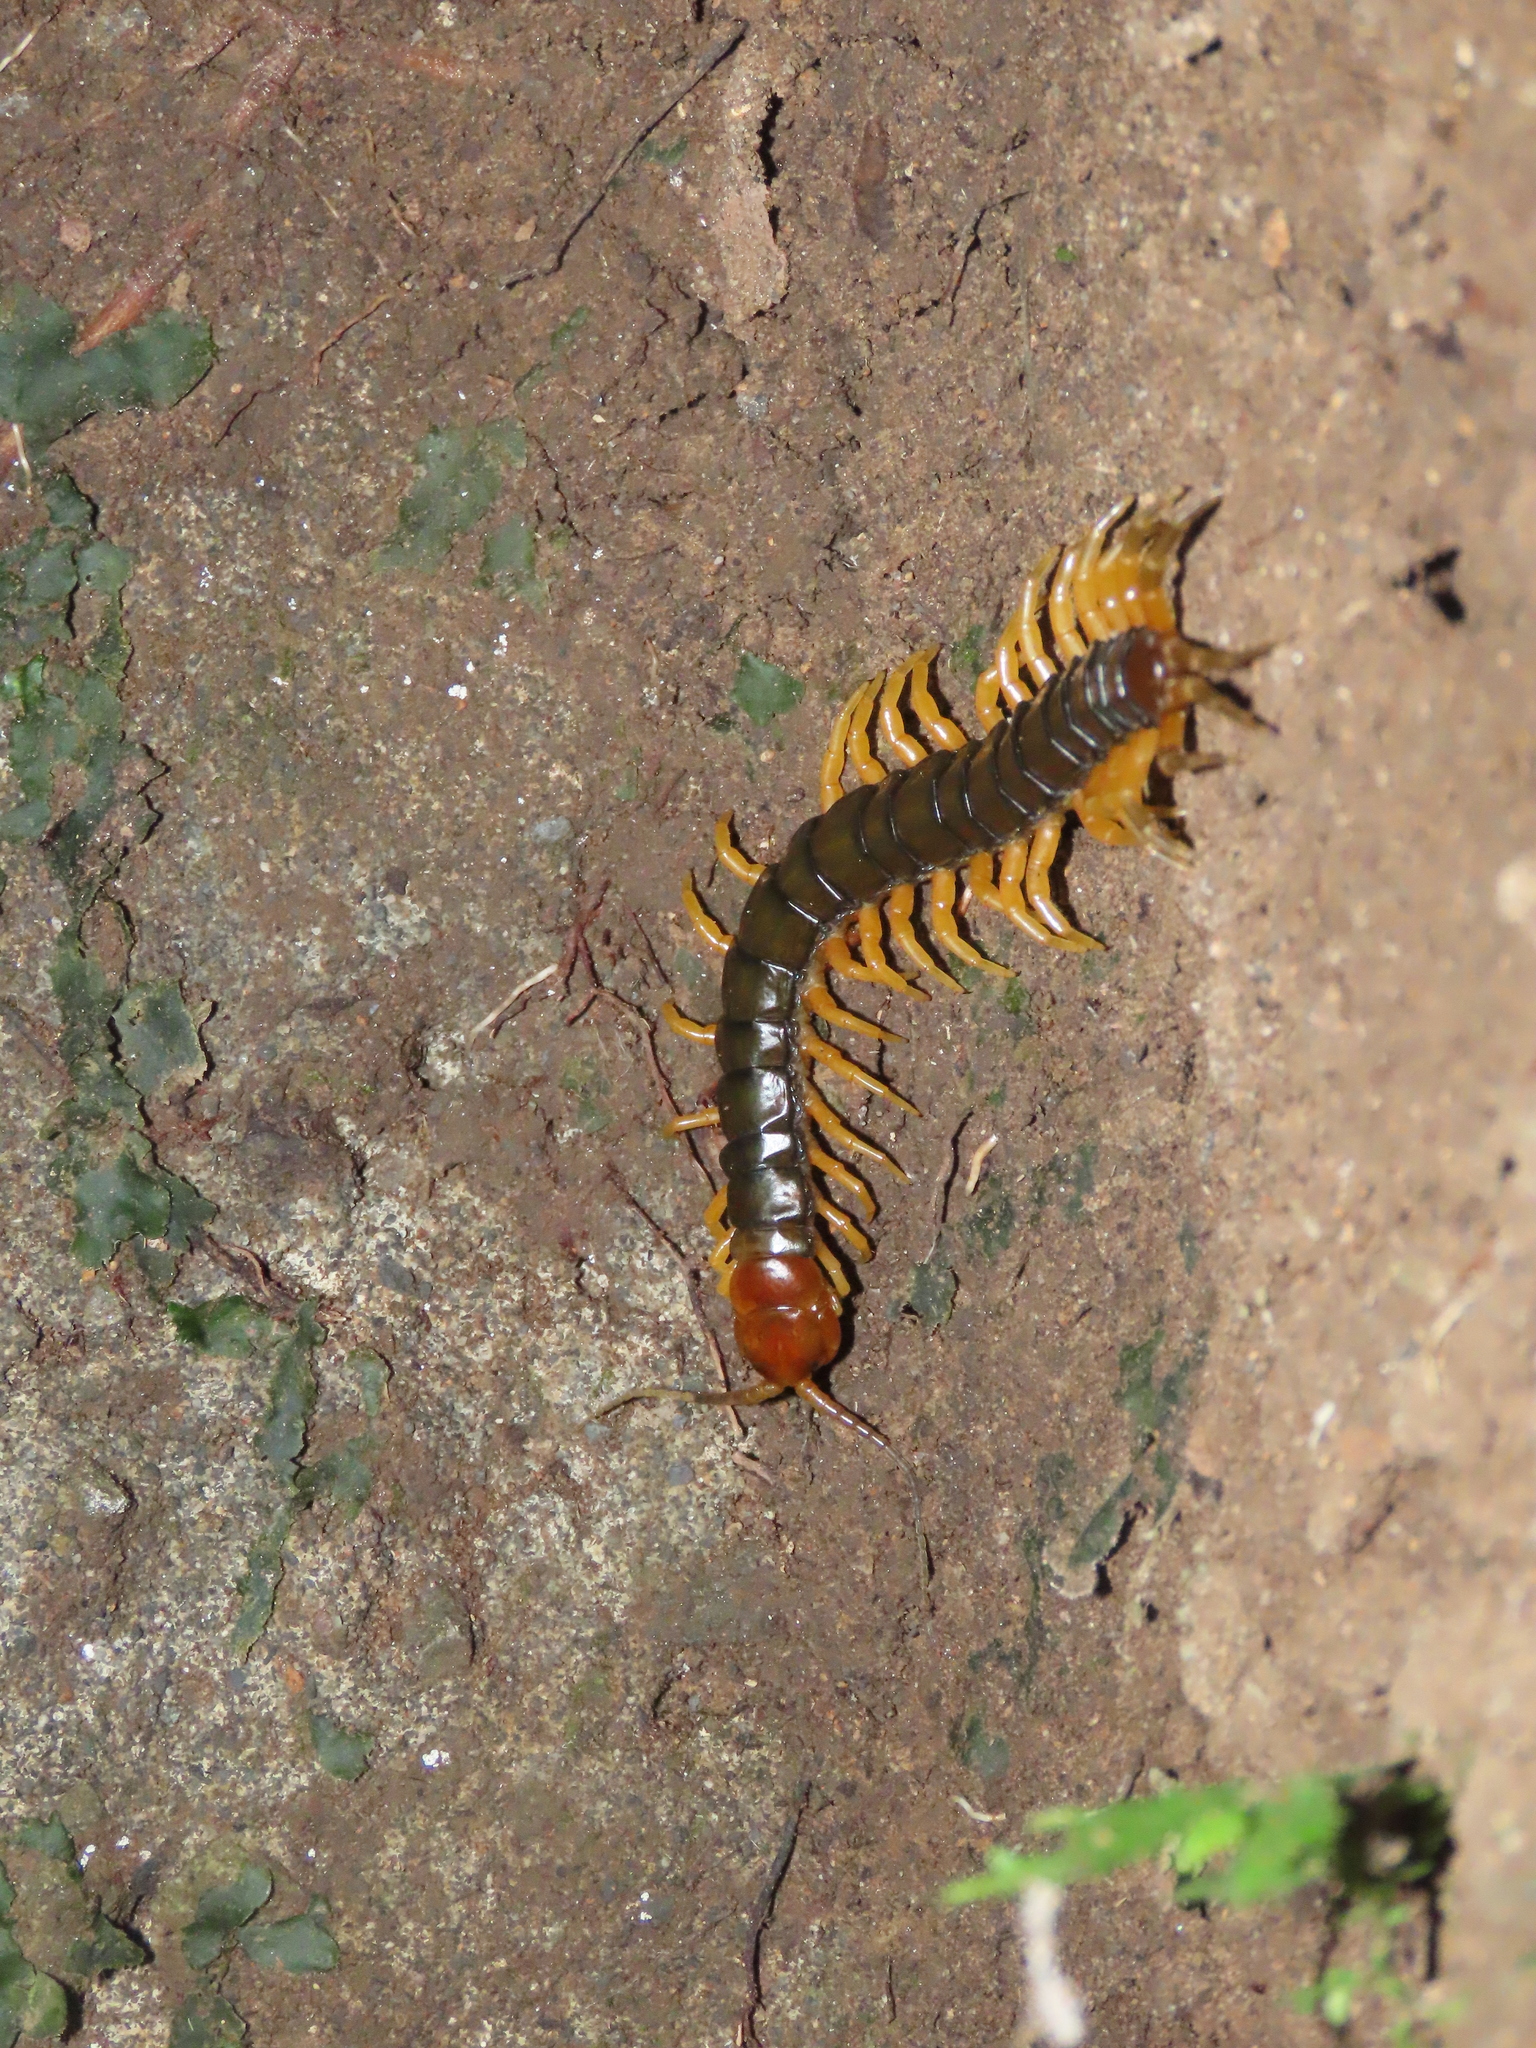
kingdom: Animalia
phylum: Arthropoda
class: Chilopoda
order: Scolopendromorpha
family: Scolopendridae
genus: Scolopendra
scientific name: Scolopendra mutilans
